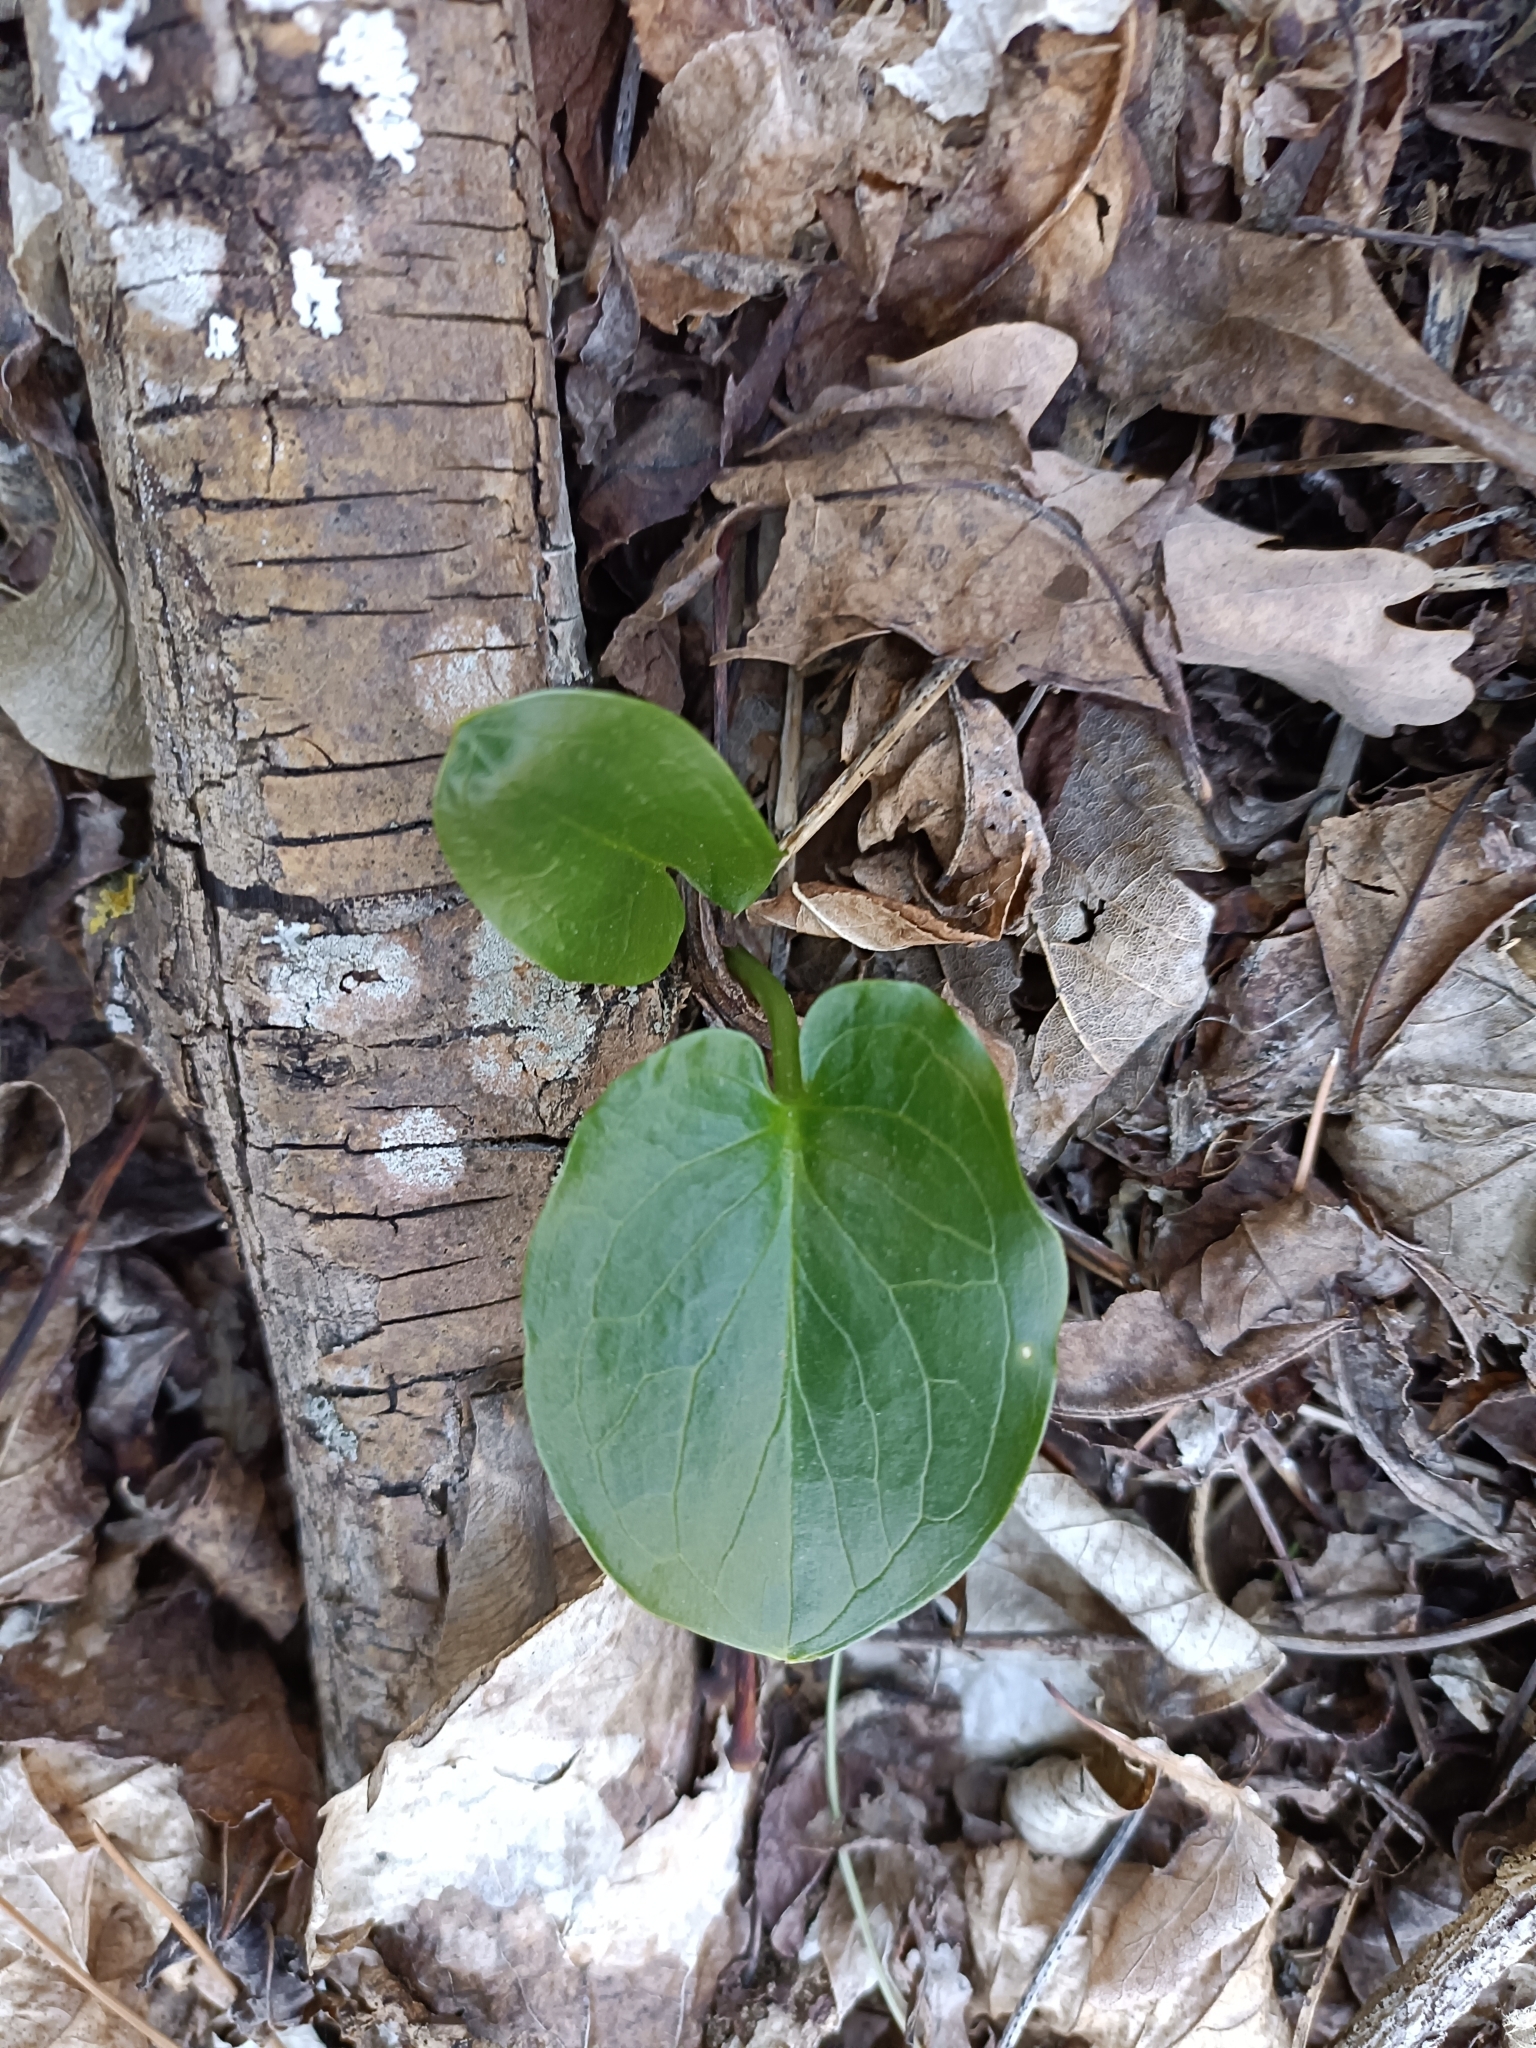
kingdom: Plantae
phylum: Tracheophyta
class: Liliopsida
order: Alismatales
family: Araceae
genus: Arum
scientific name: Arum cylindraceum
